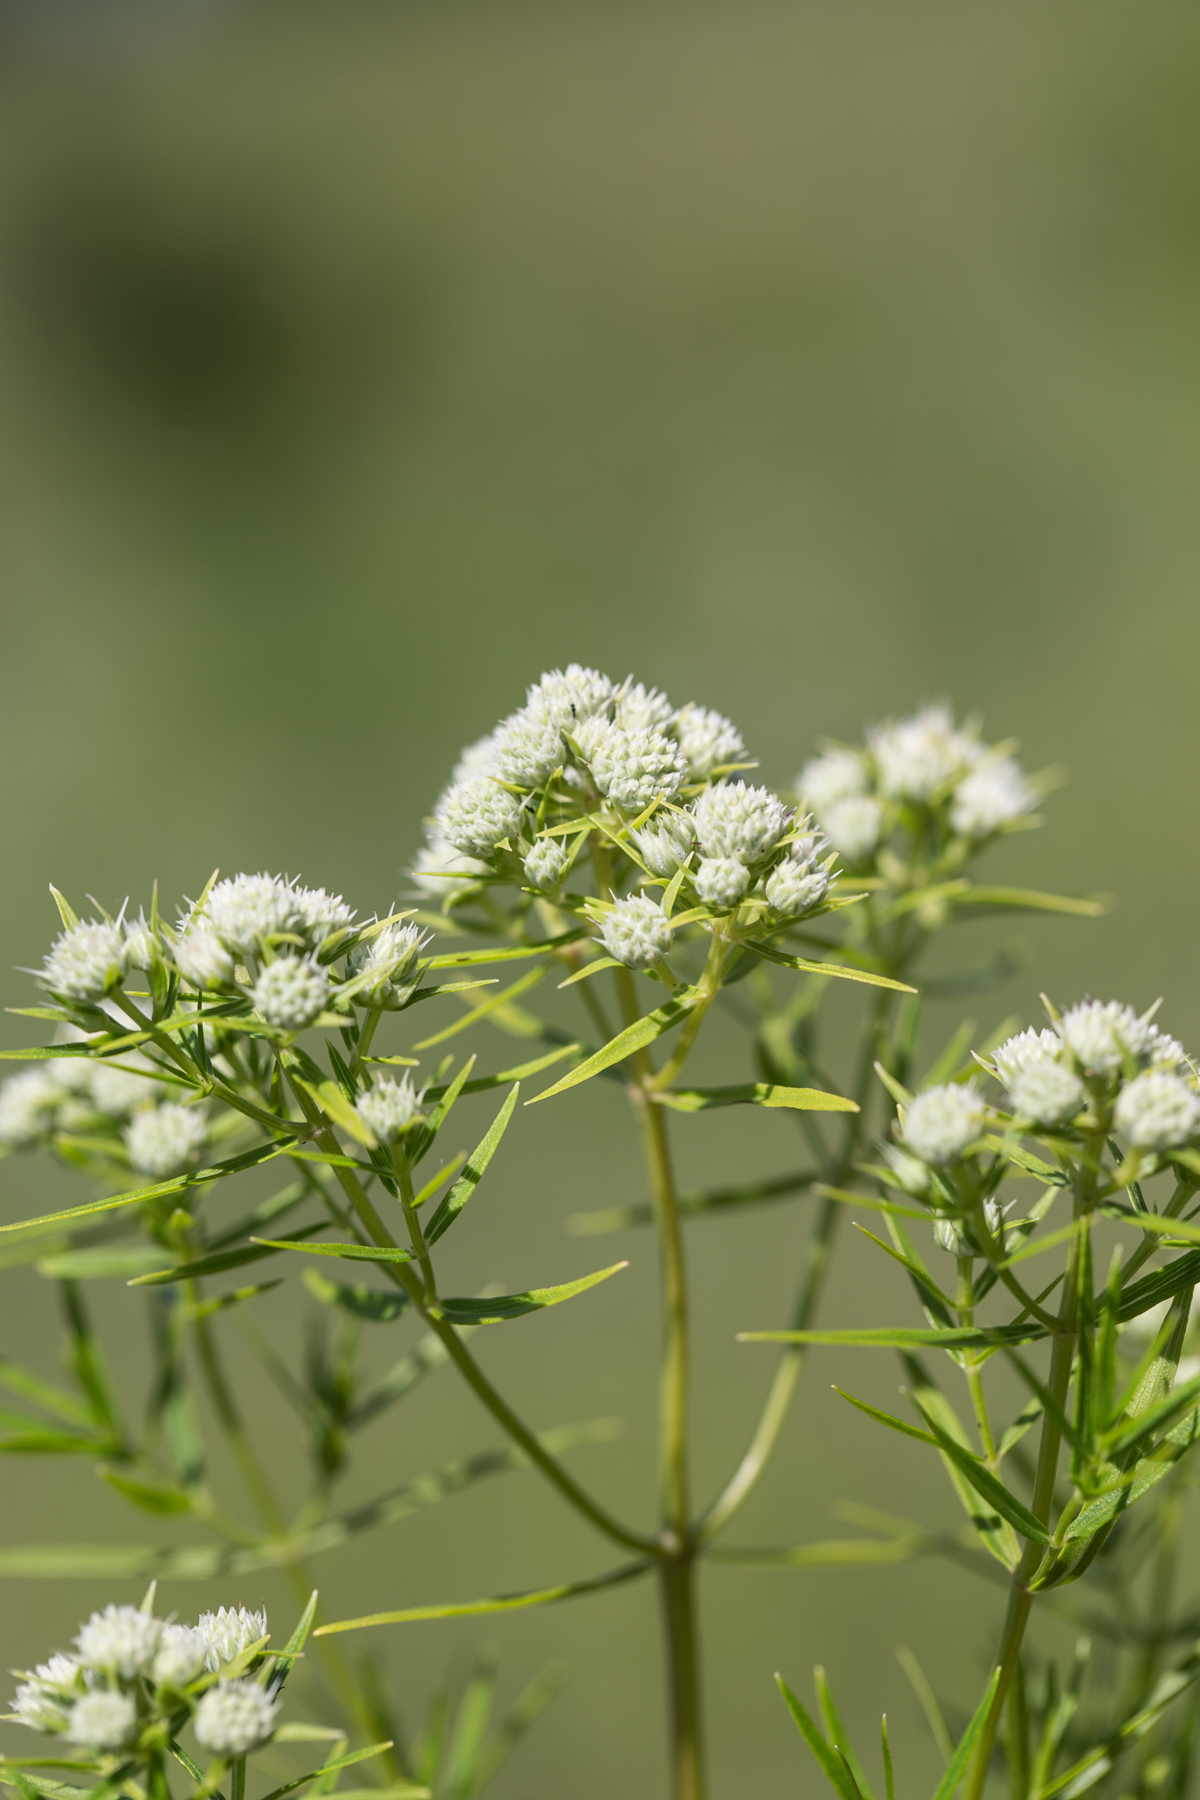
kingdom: Plantae
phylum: Tracheophyta
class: Magnoliopsida
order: Lamiales
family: Lamiaceae
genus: Pycnanthemum
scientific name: Pycnanthemum tenuifolium
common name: Narrow-leaf mountain-mint
